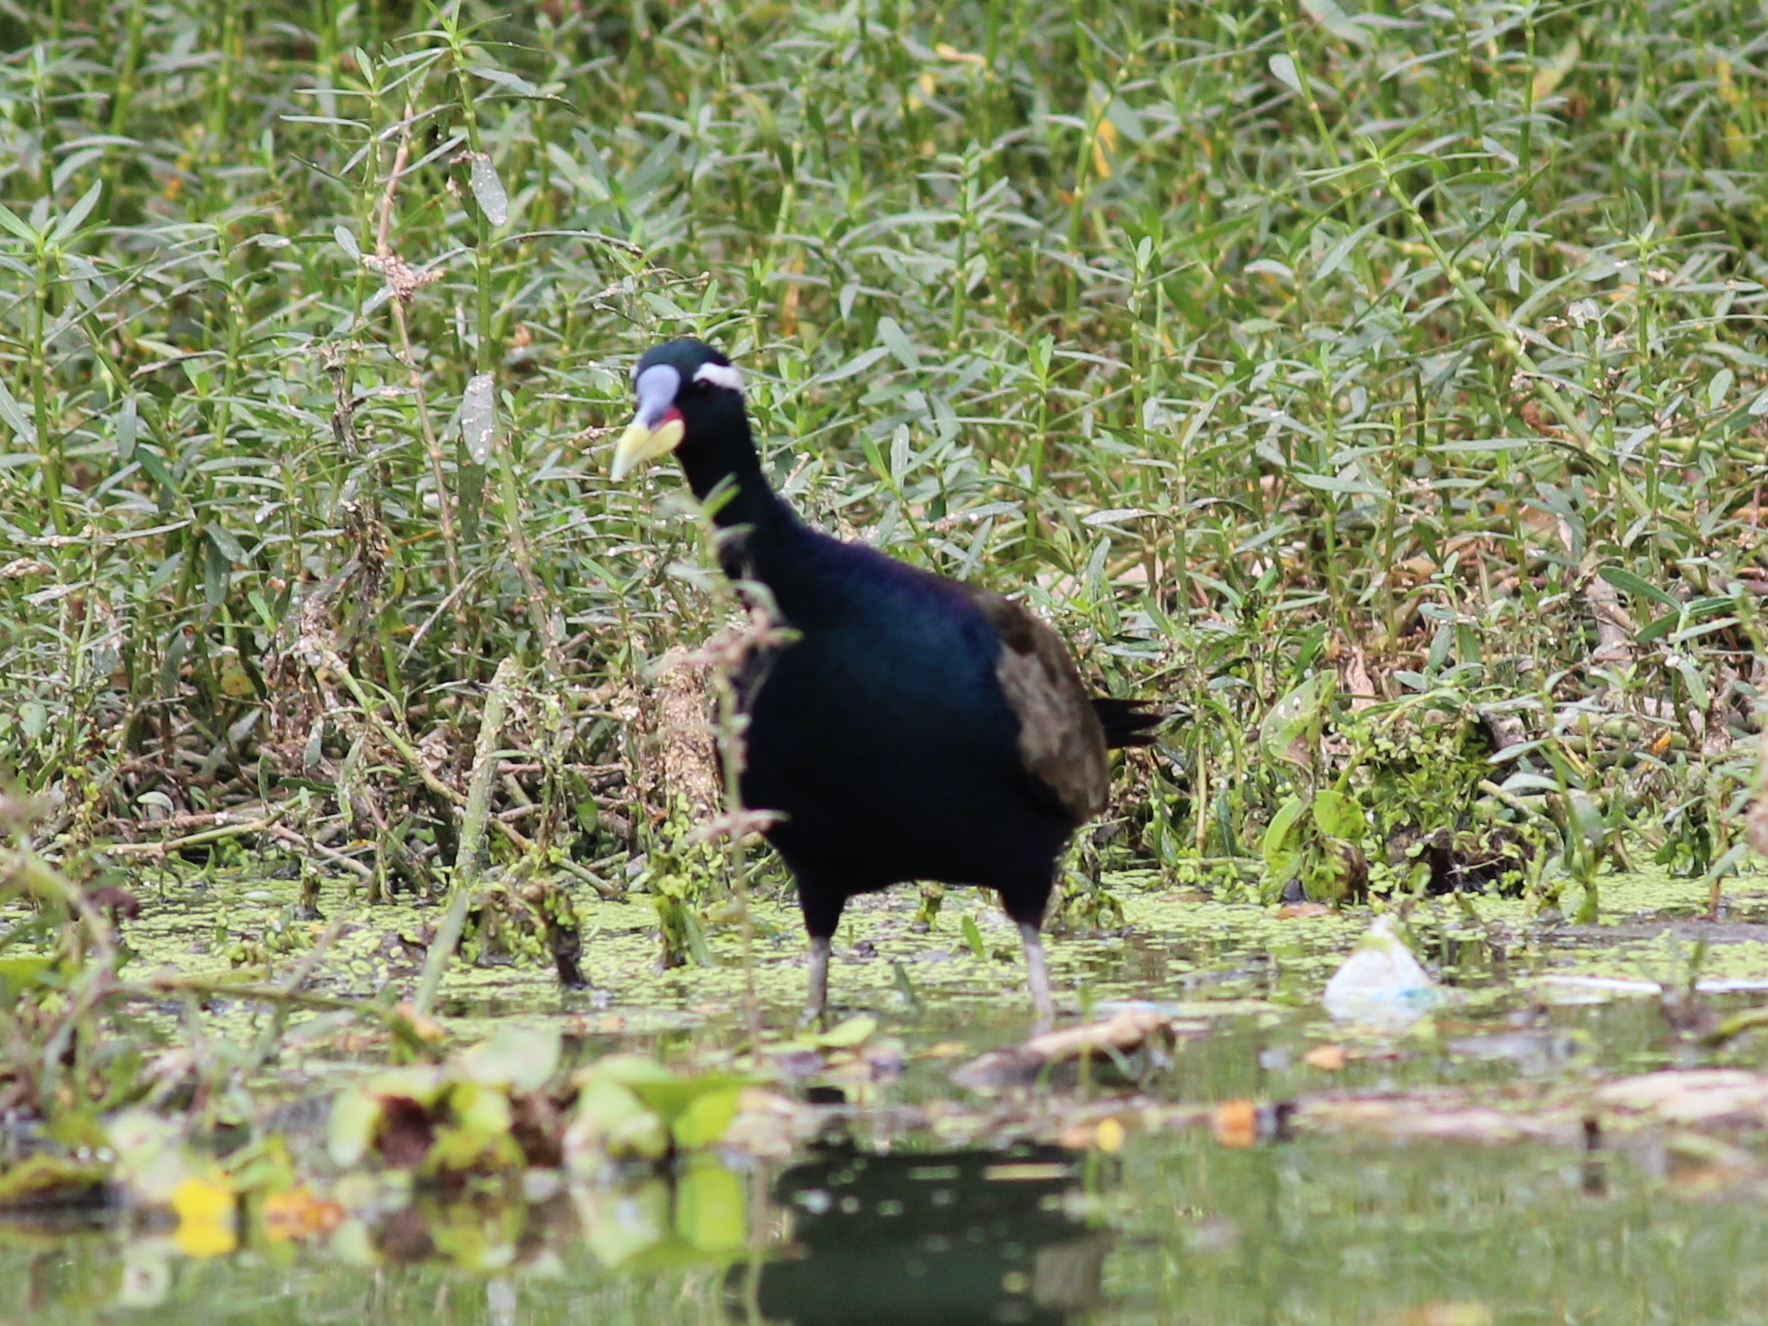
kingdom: Animalia
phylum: Chordata
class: Aves
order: Charadriiformes
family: Jacanidae
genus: Metopidius
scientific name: Metopidius indicus
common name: Bronze-winged jacana
